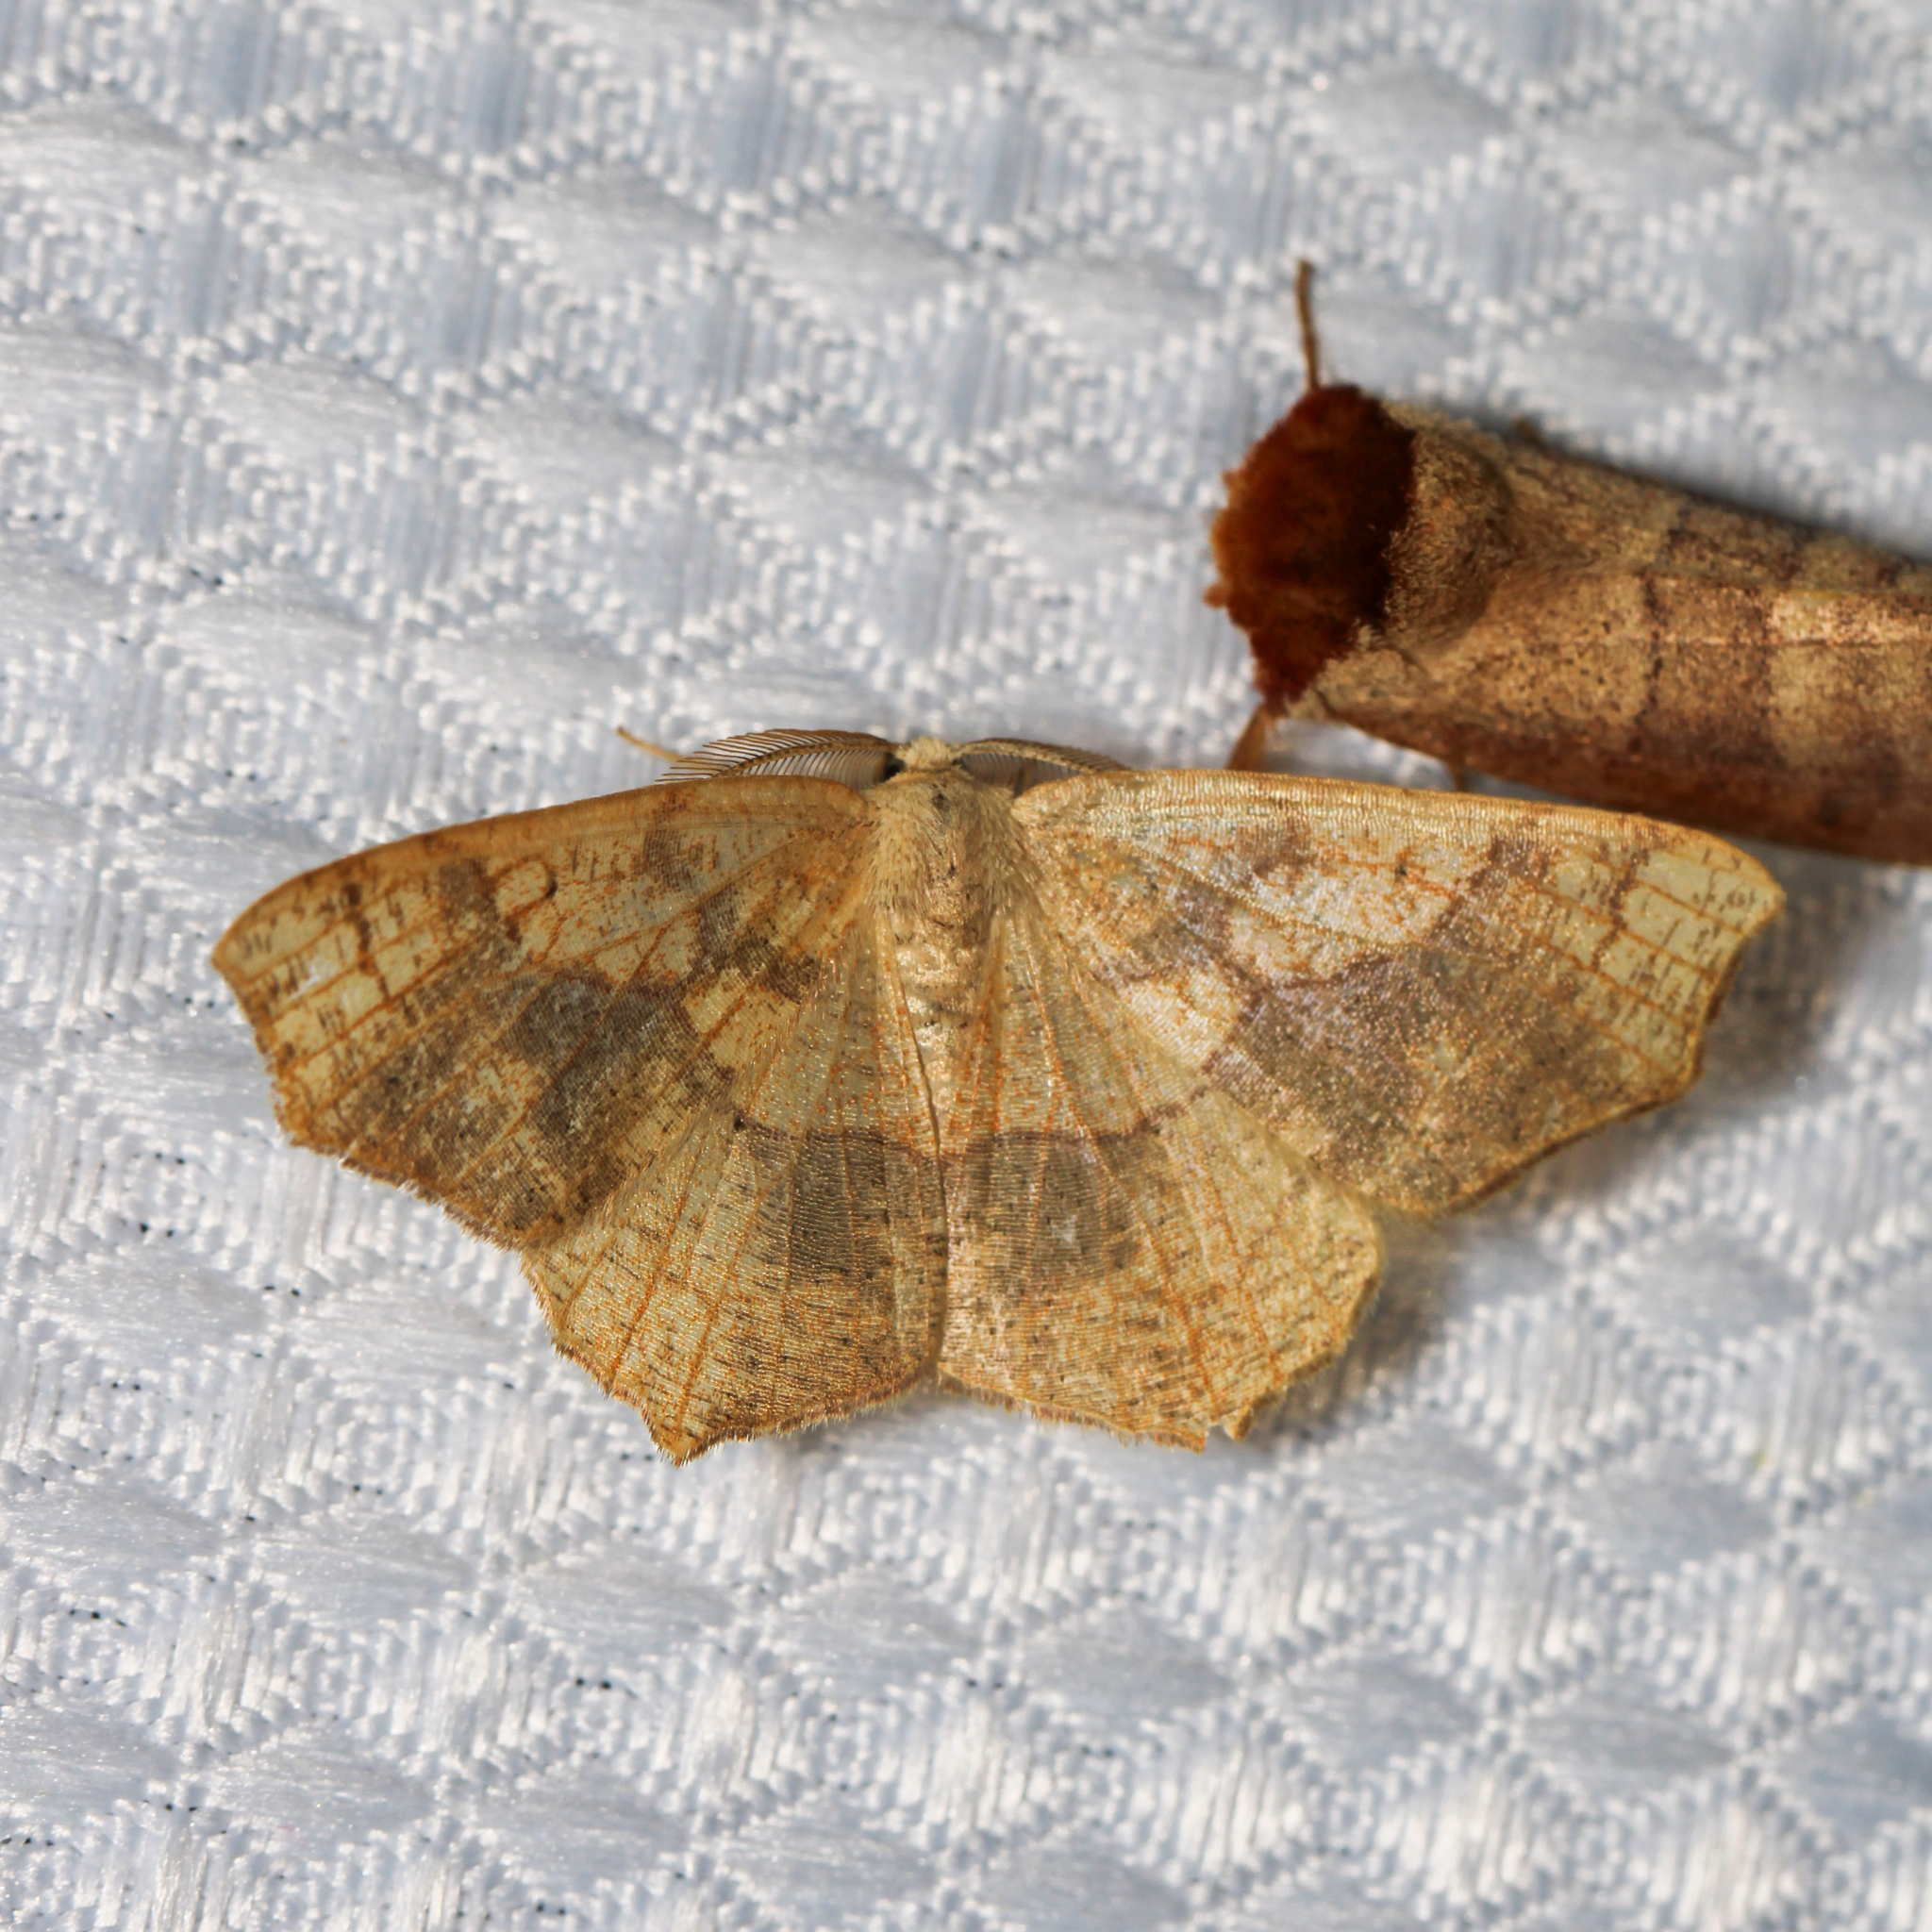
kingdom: Animalia
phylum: Arthropoda
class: Insecta
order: Lepidoptera
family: Geometridae
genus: Besma
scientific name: Besma quercivoraria
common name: Oak besma
